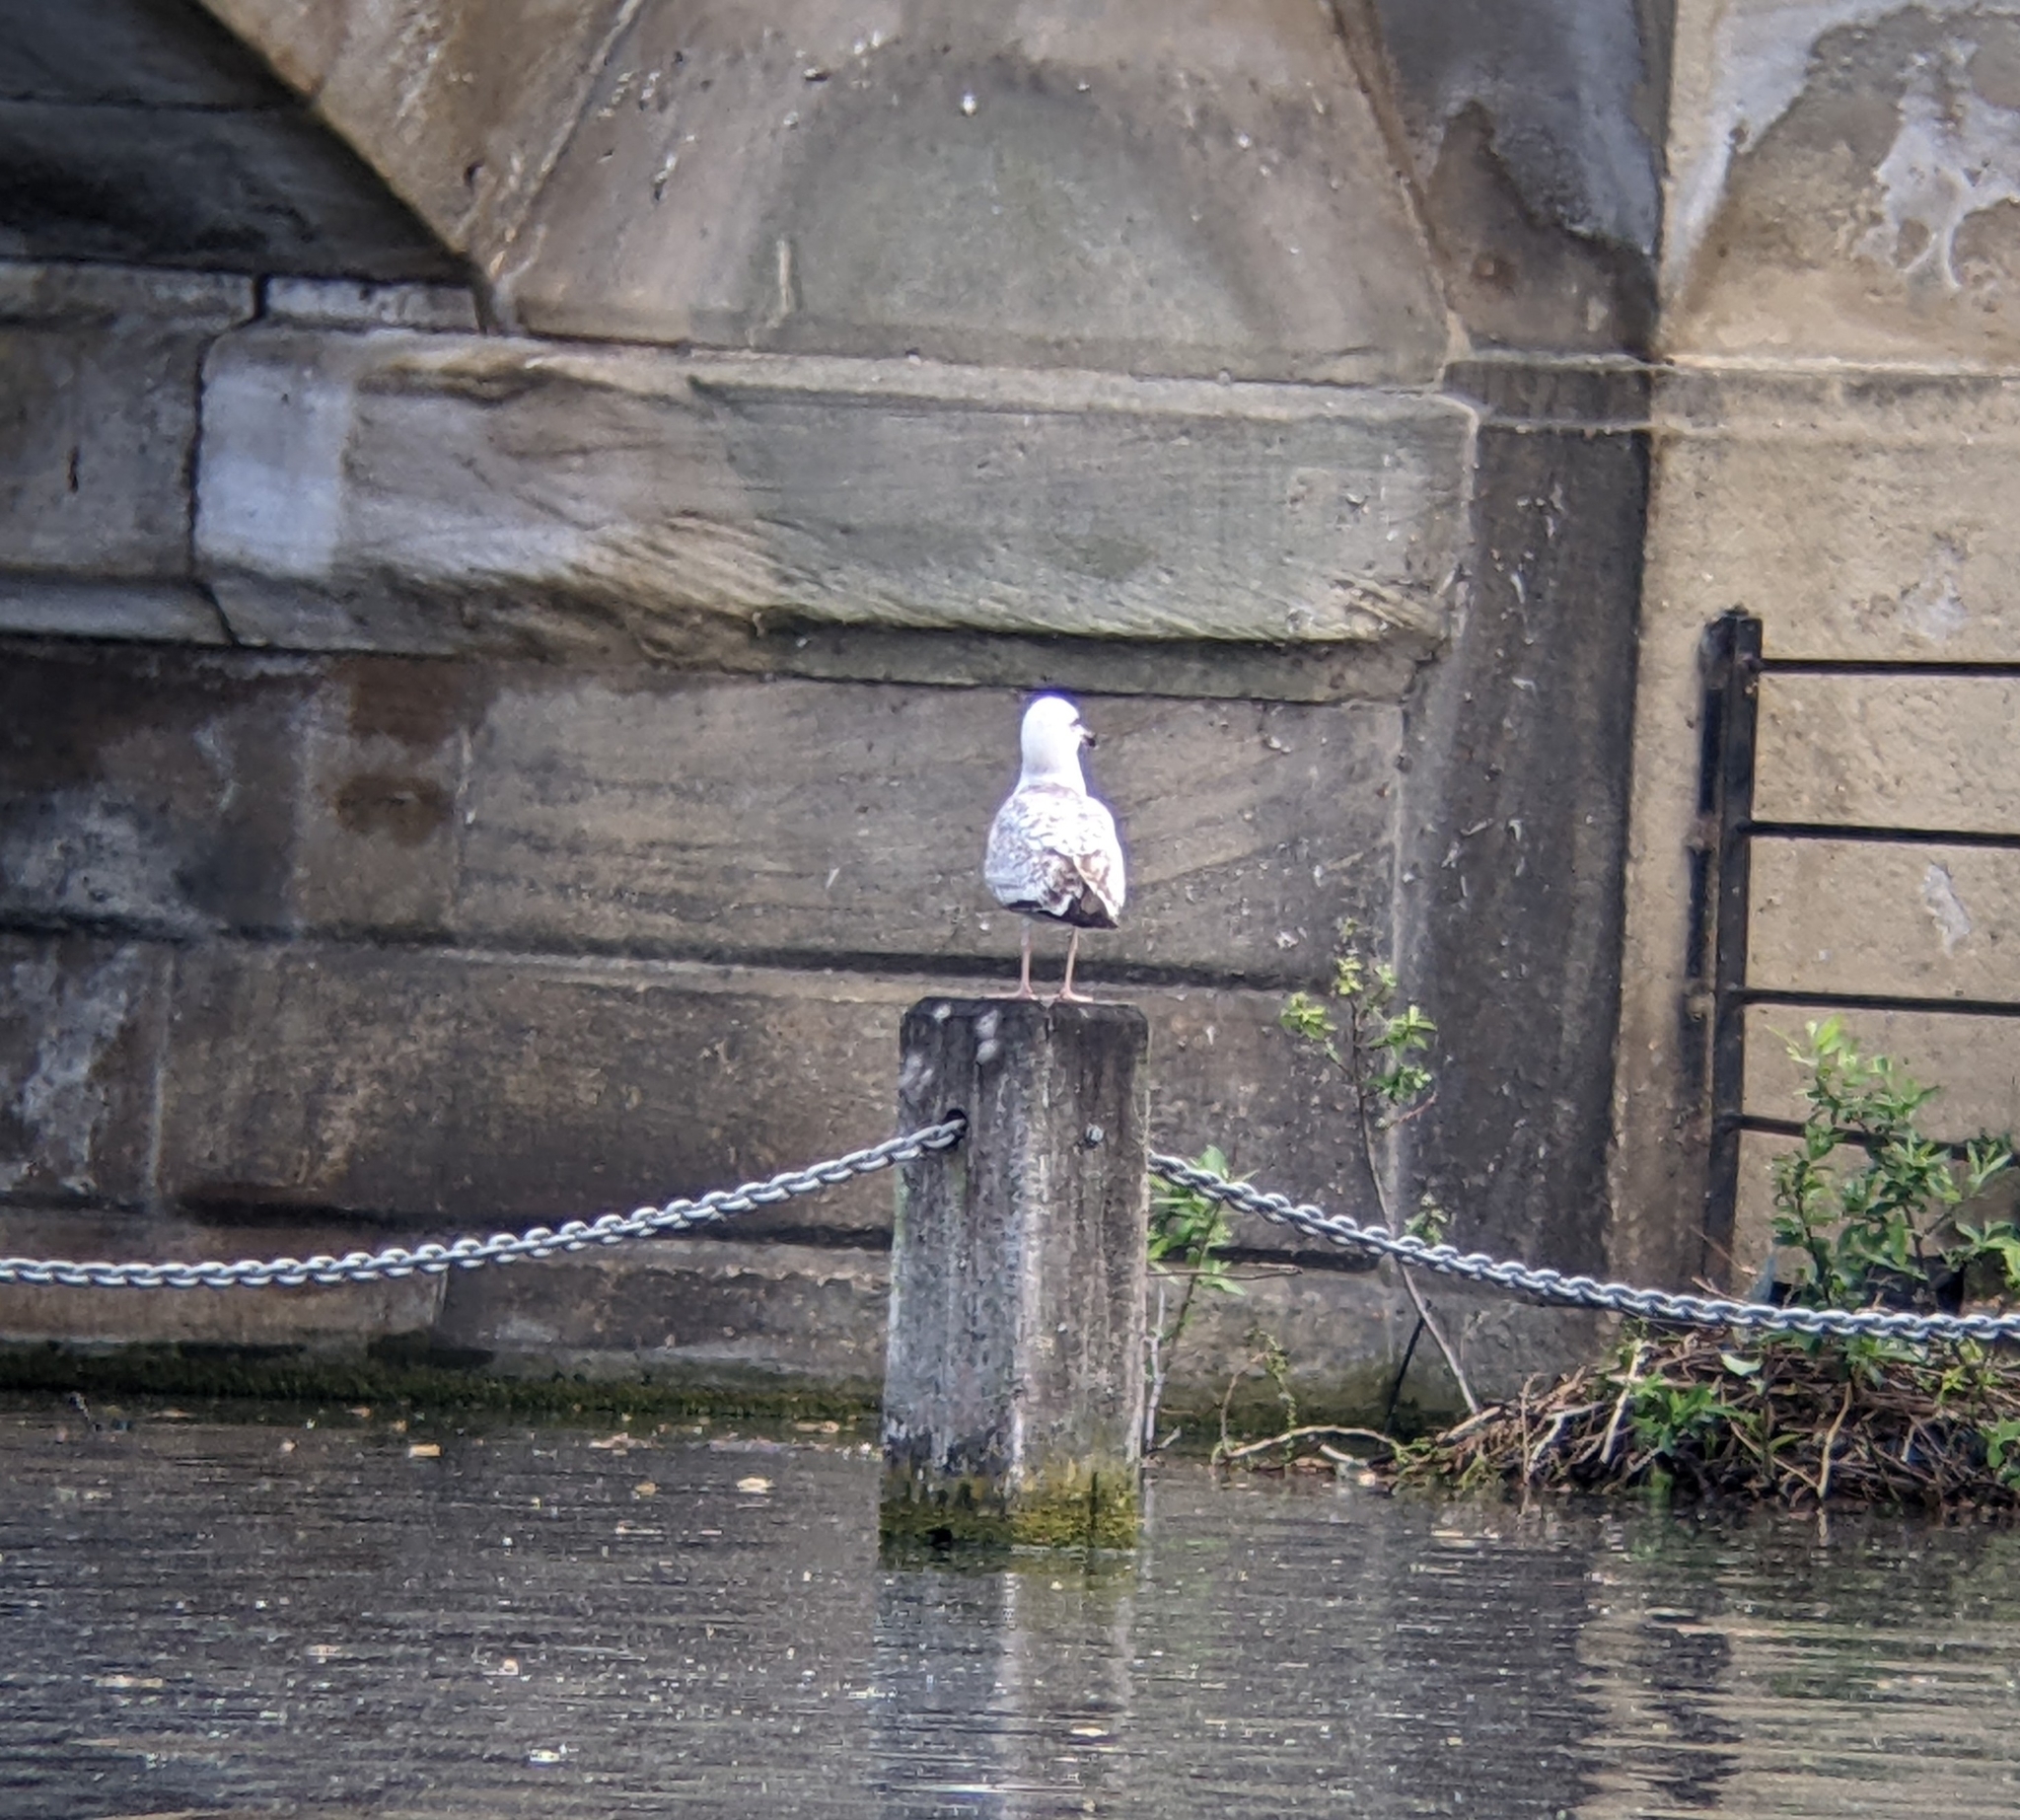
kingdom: Animalia
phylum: Chordata
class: Aves
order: Charadriiformes
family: Laridae
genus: Larus
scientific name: Larus argentatus
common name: Herring gull
